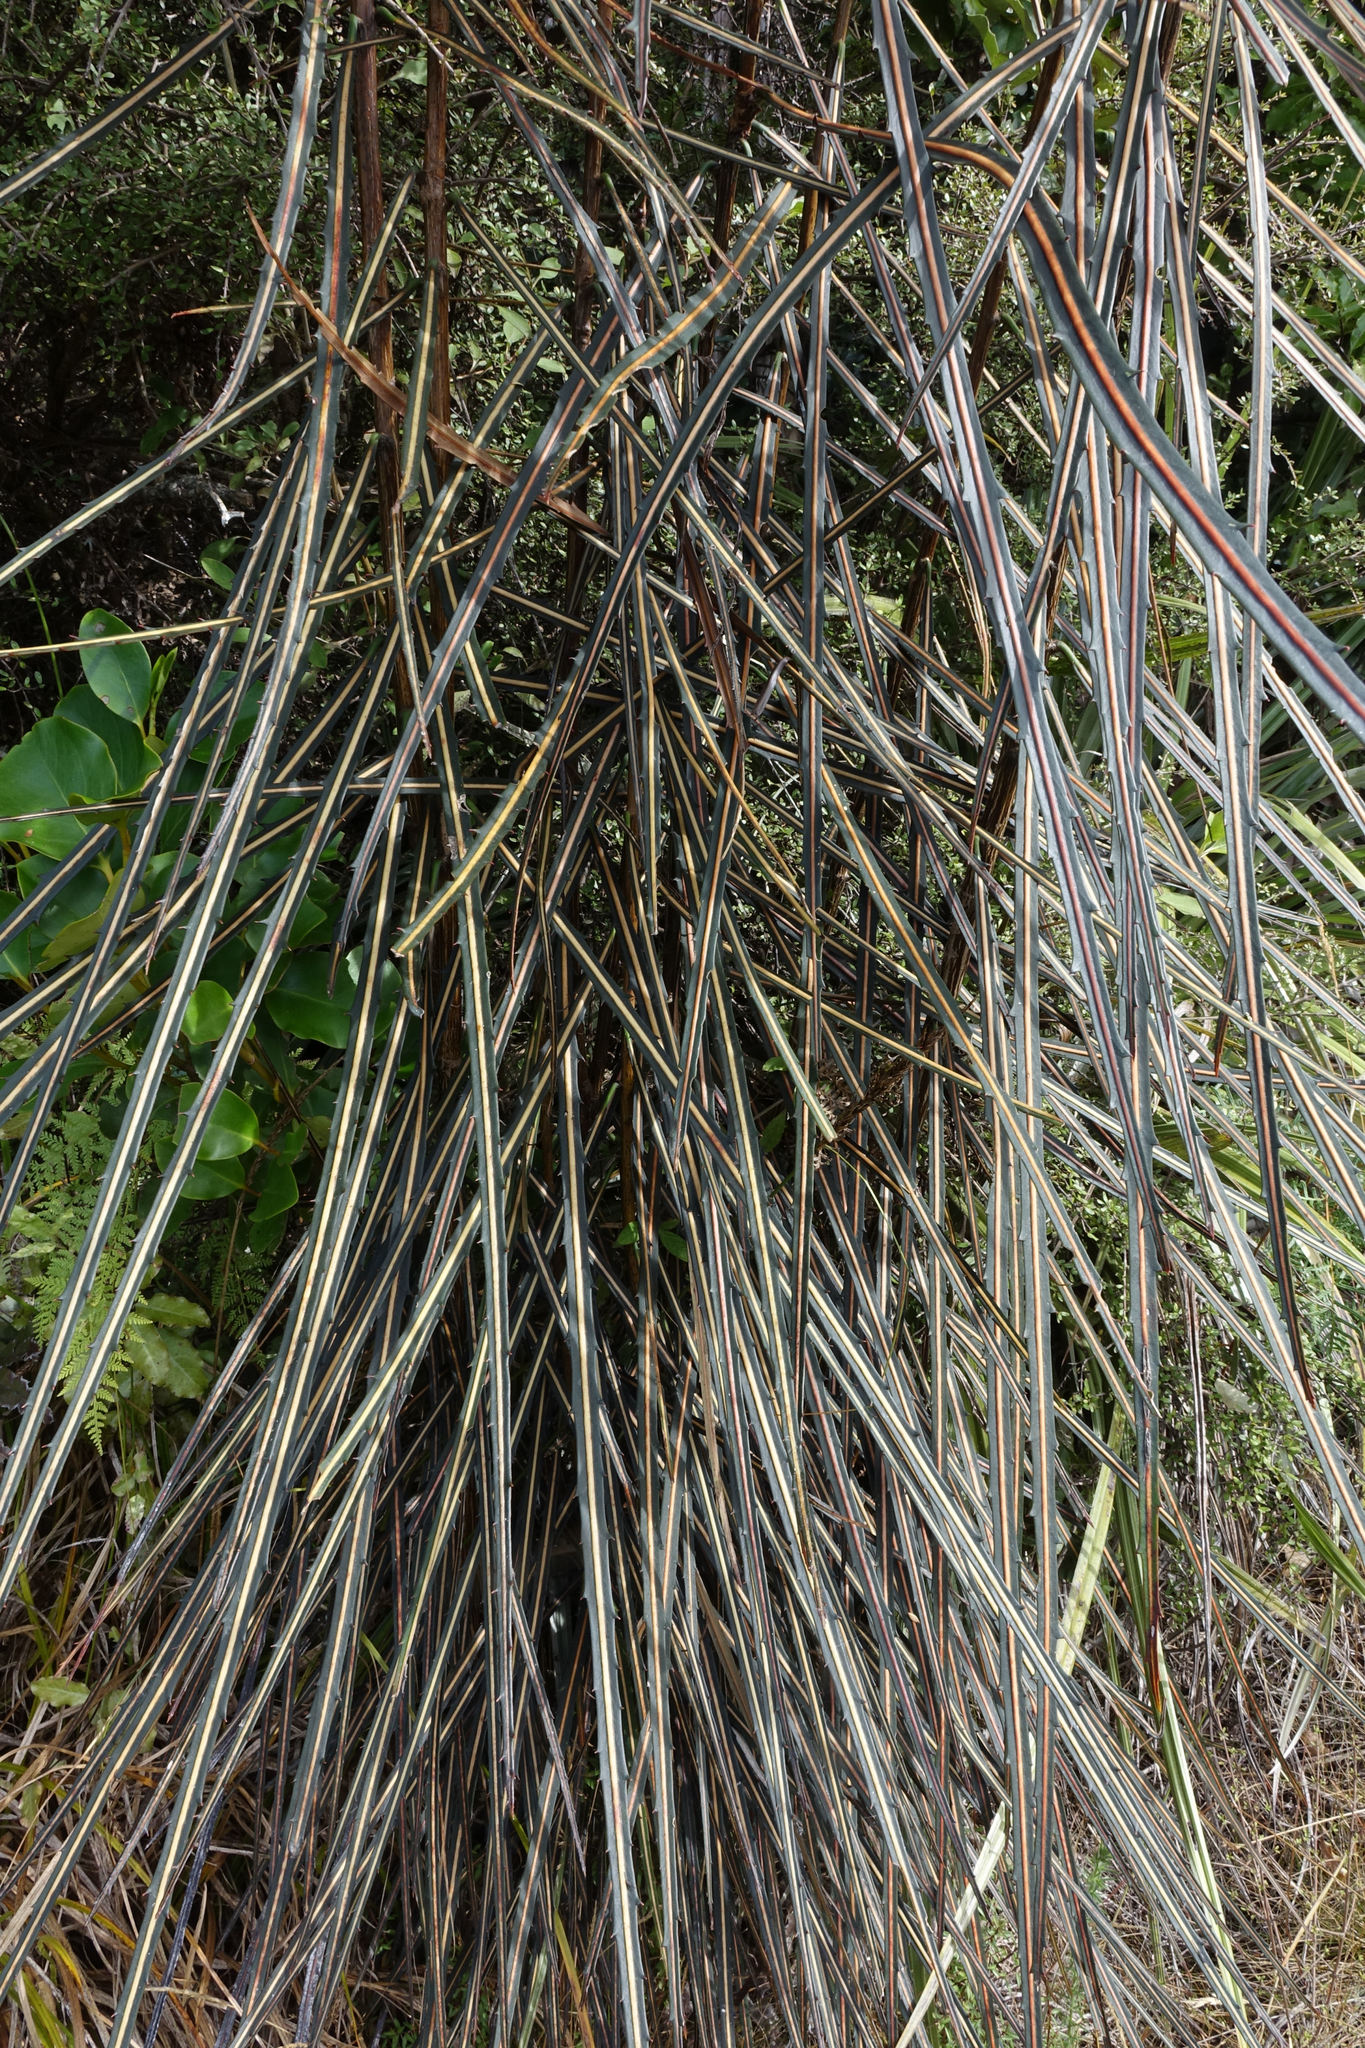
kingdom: Plantae
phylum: Tracheophyta
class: Magnoliopsida
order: Apiales
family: Araliaceae
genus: Pseudopanax
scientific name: Pseudopanax crassifolius
